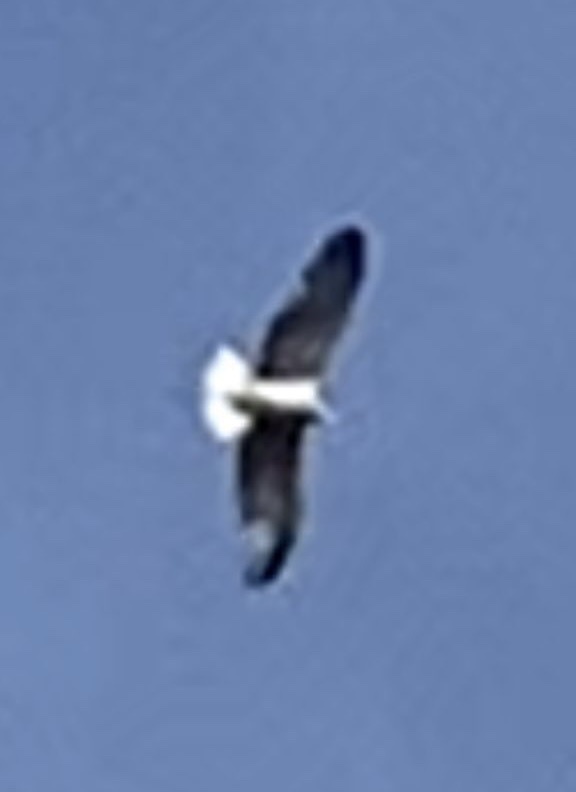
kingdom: Animalia
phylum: Chordata
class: Aves
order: Accipitriformes
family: Accipitridae
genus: Hieraaetus
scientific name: Hieraaetus pennatus
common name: Booted eagle
